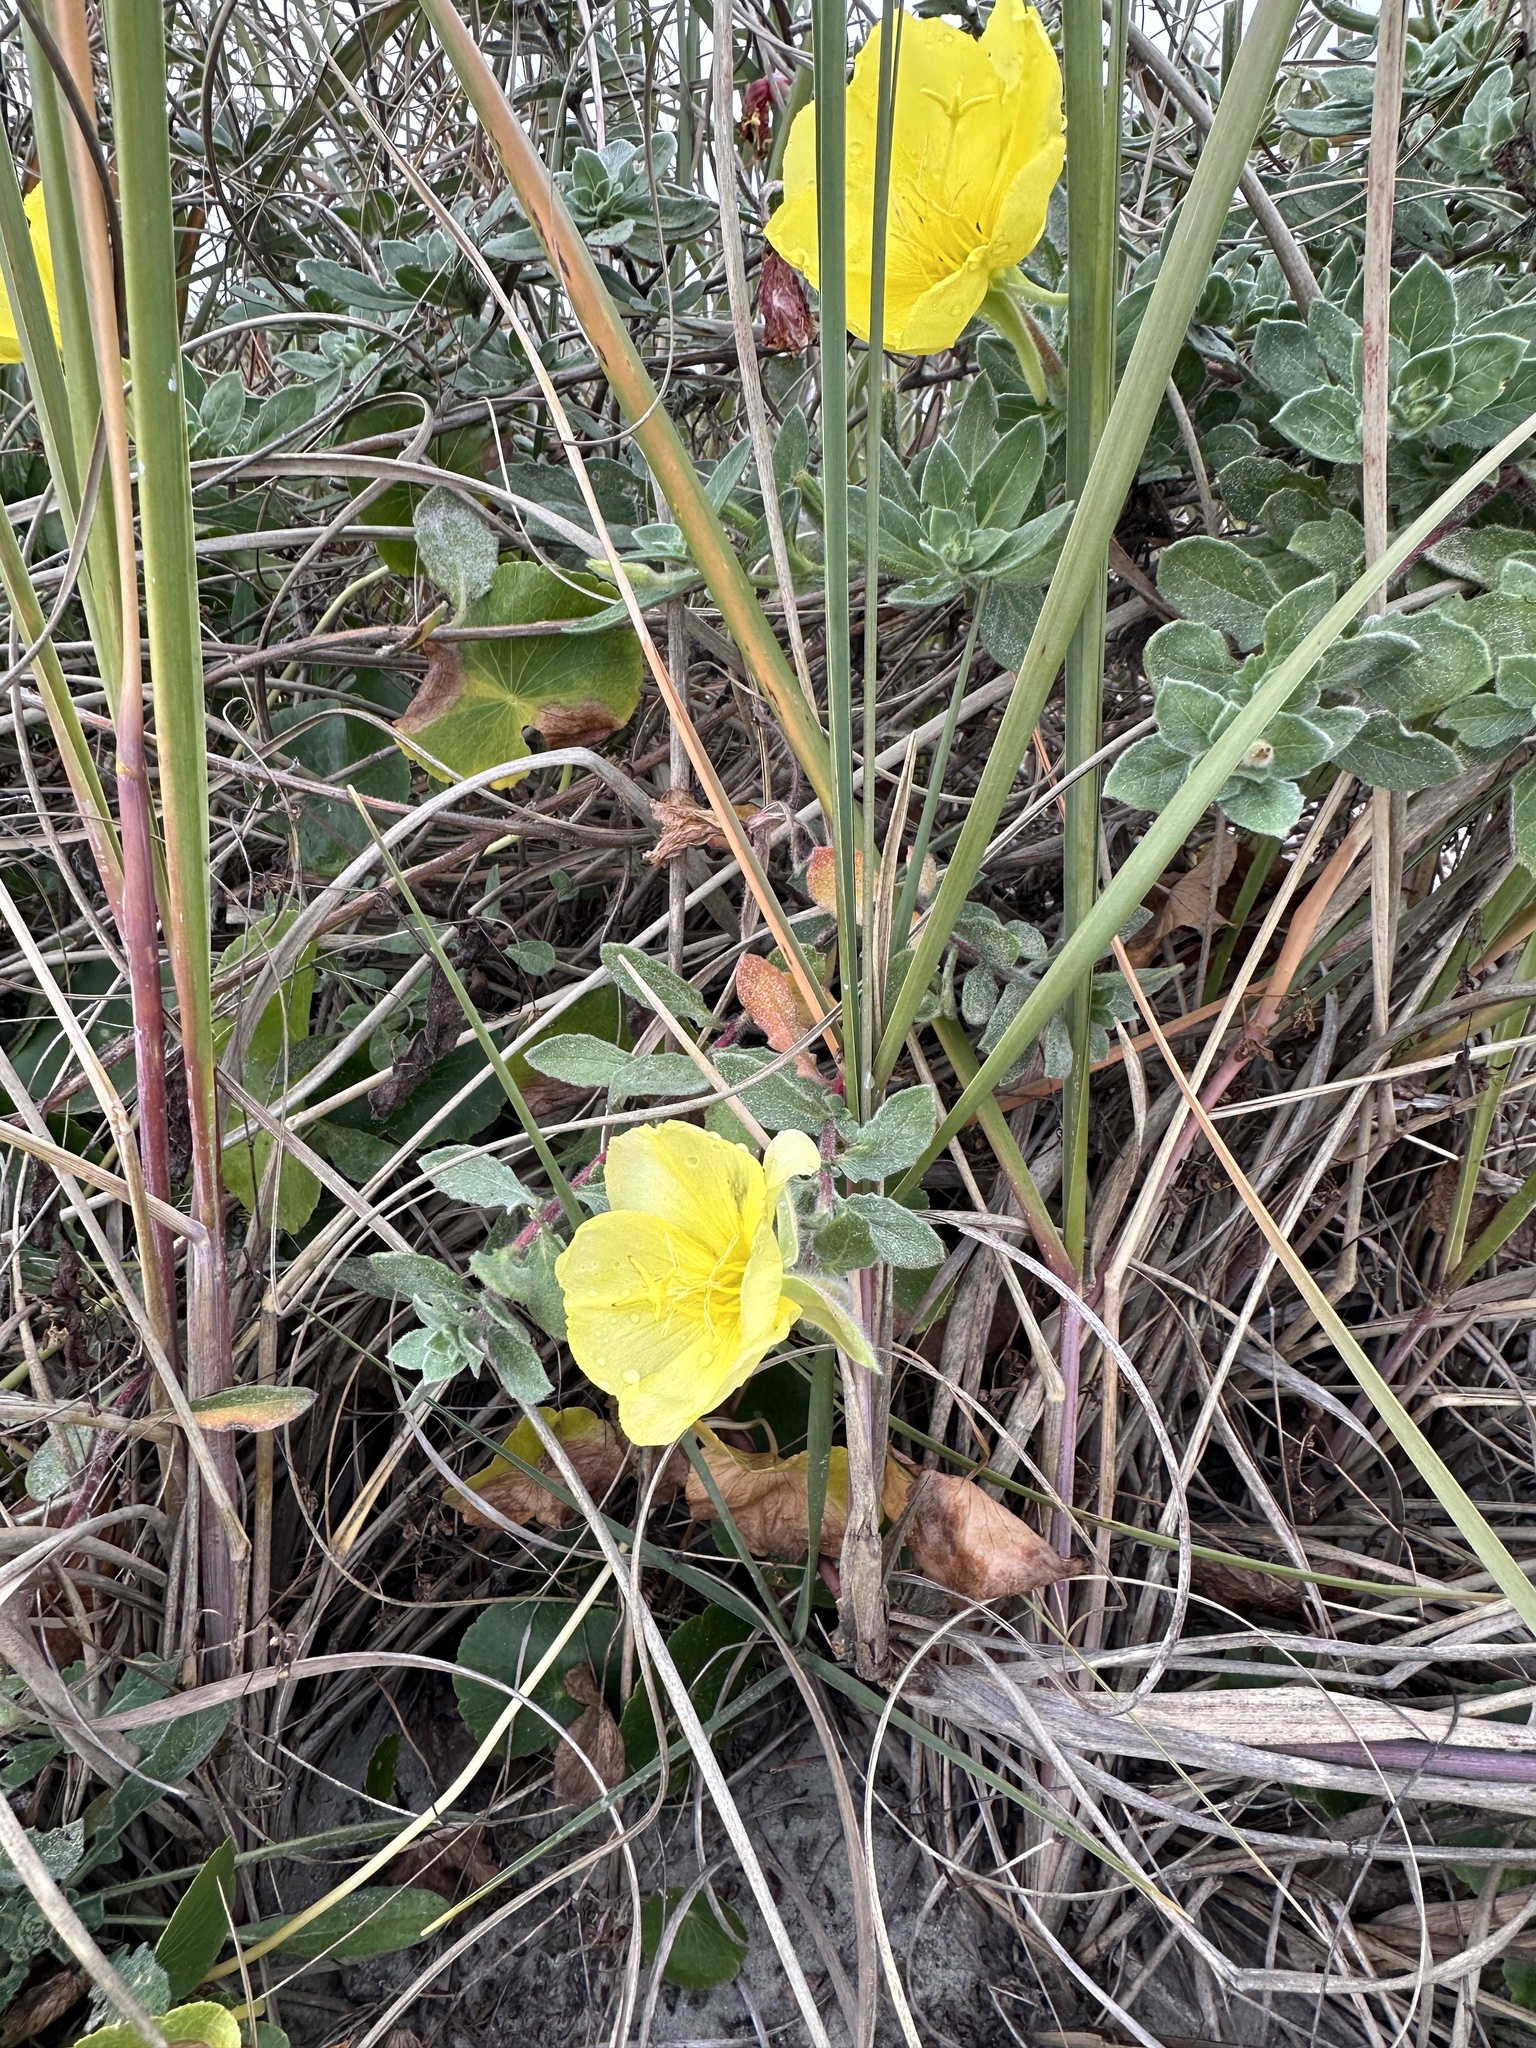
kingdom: Plantae
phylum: Tracheophyta
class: Magnoliopsida
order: Myrtales
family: Onagraceae
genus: Oenothera
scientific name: Oenothera drummondii
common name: Beach evening-primrose
